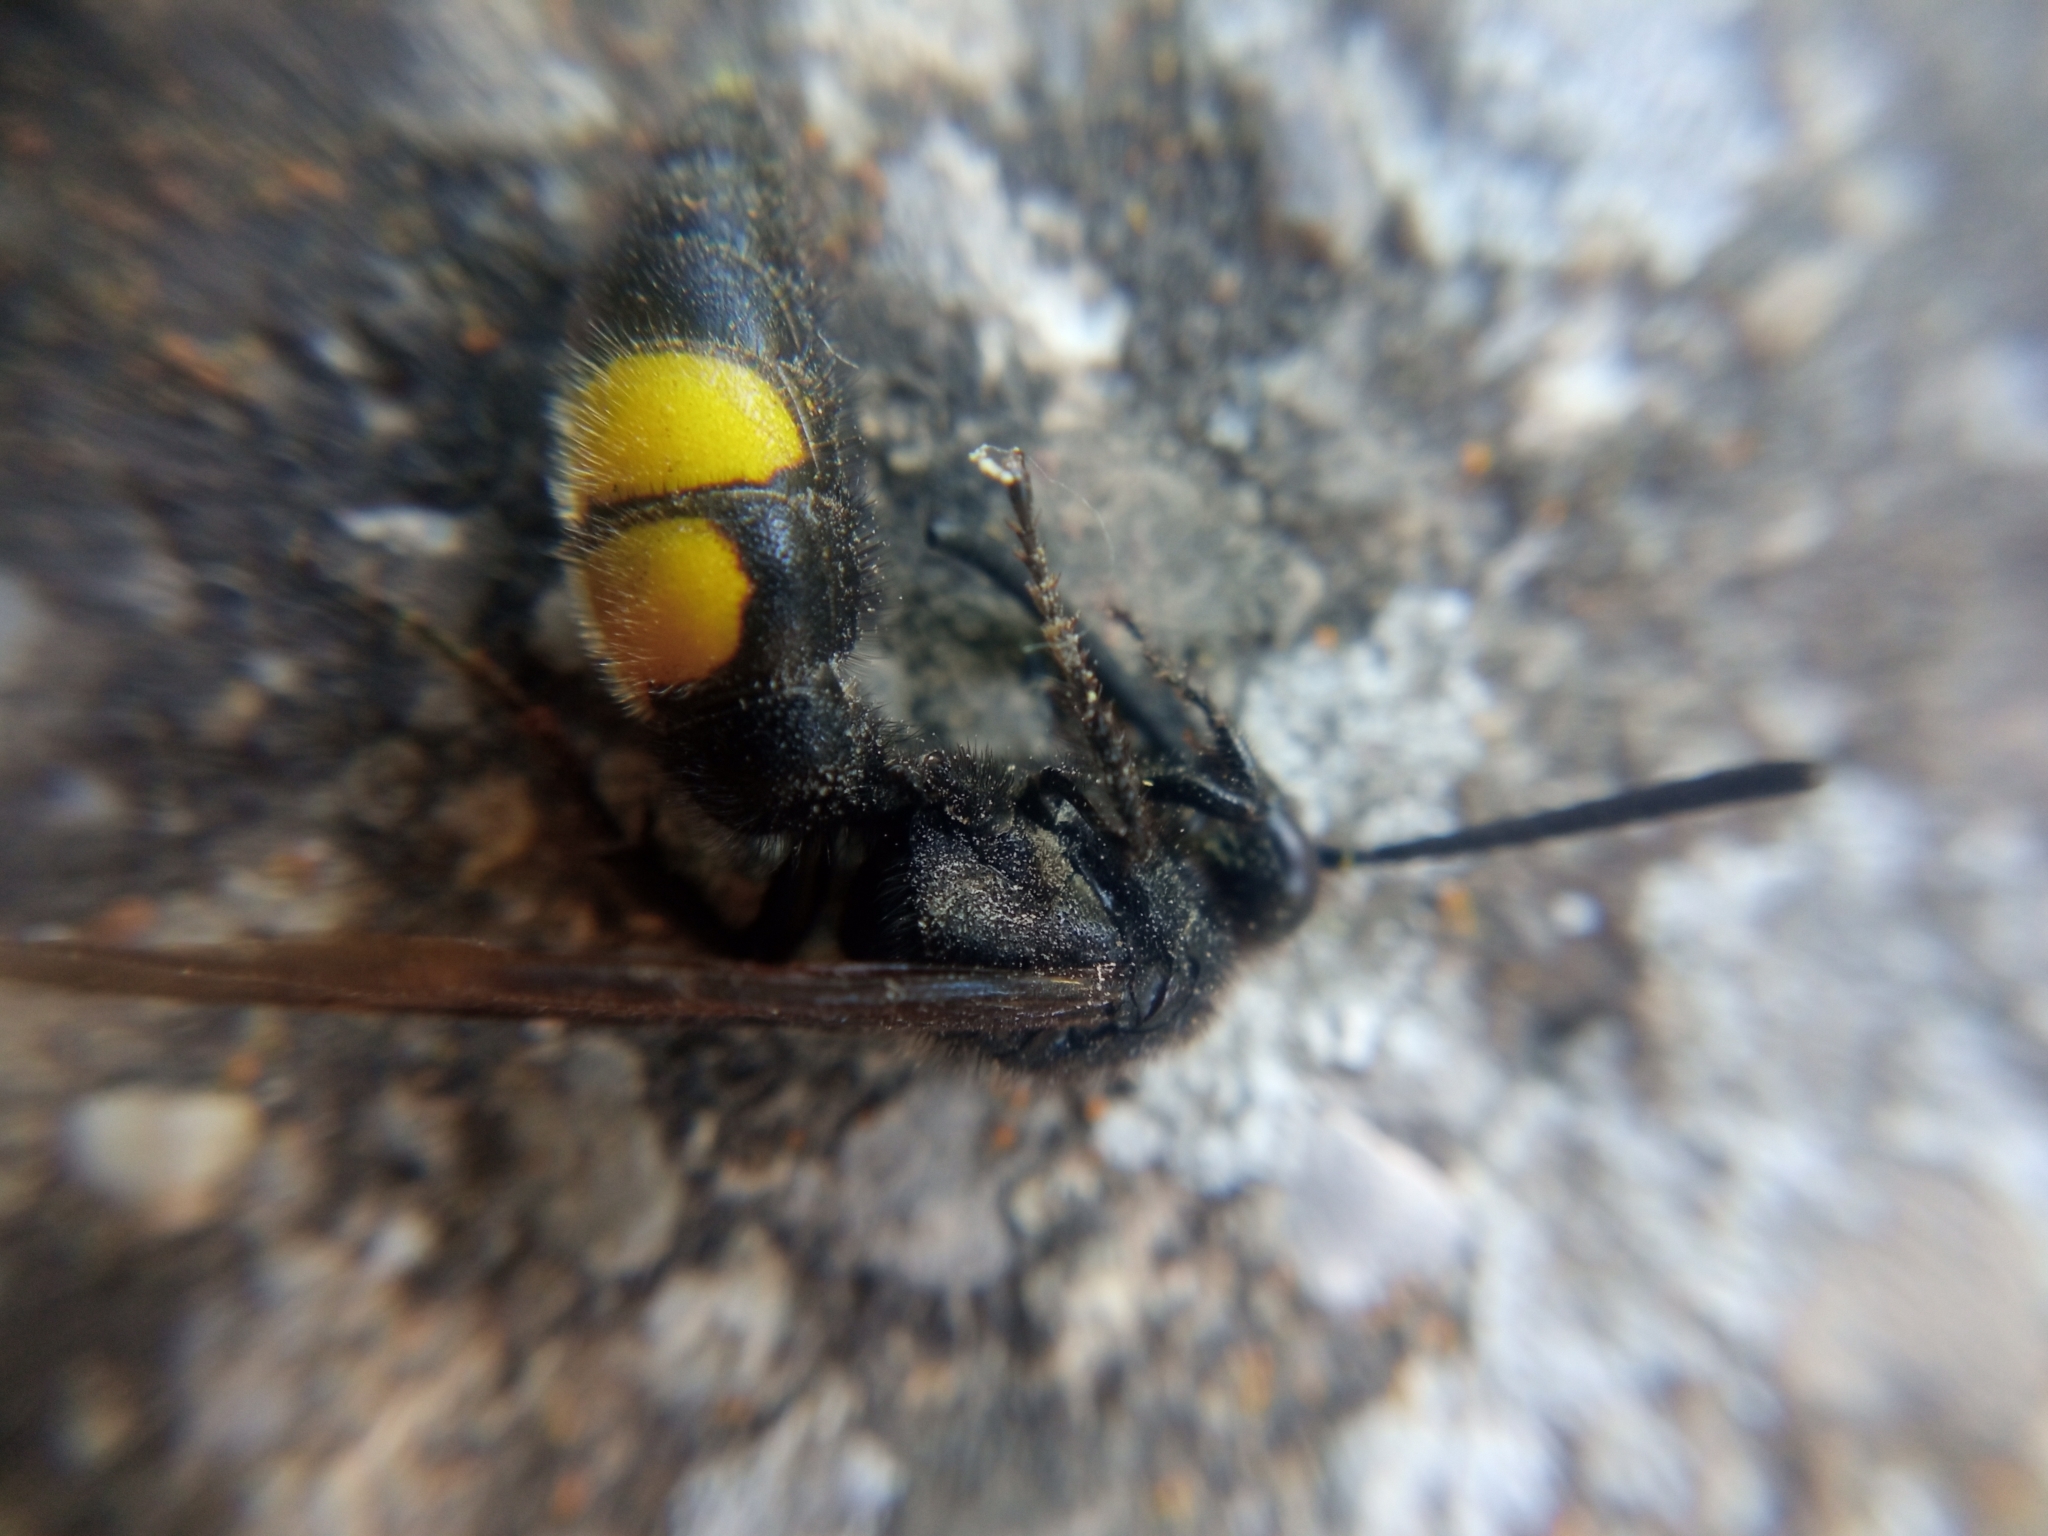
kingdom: Animalia
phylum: Arthropoda
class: Insecta
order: Hymenoptera
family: Scoliidae
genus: Scolia
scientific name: Scolia hirta
